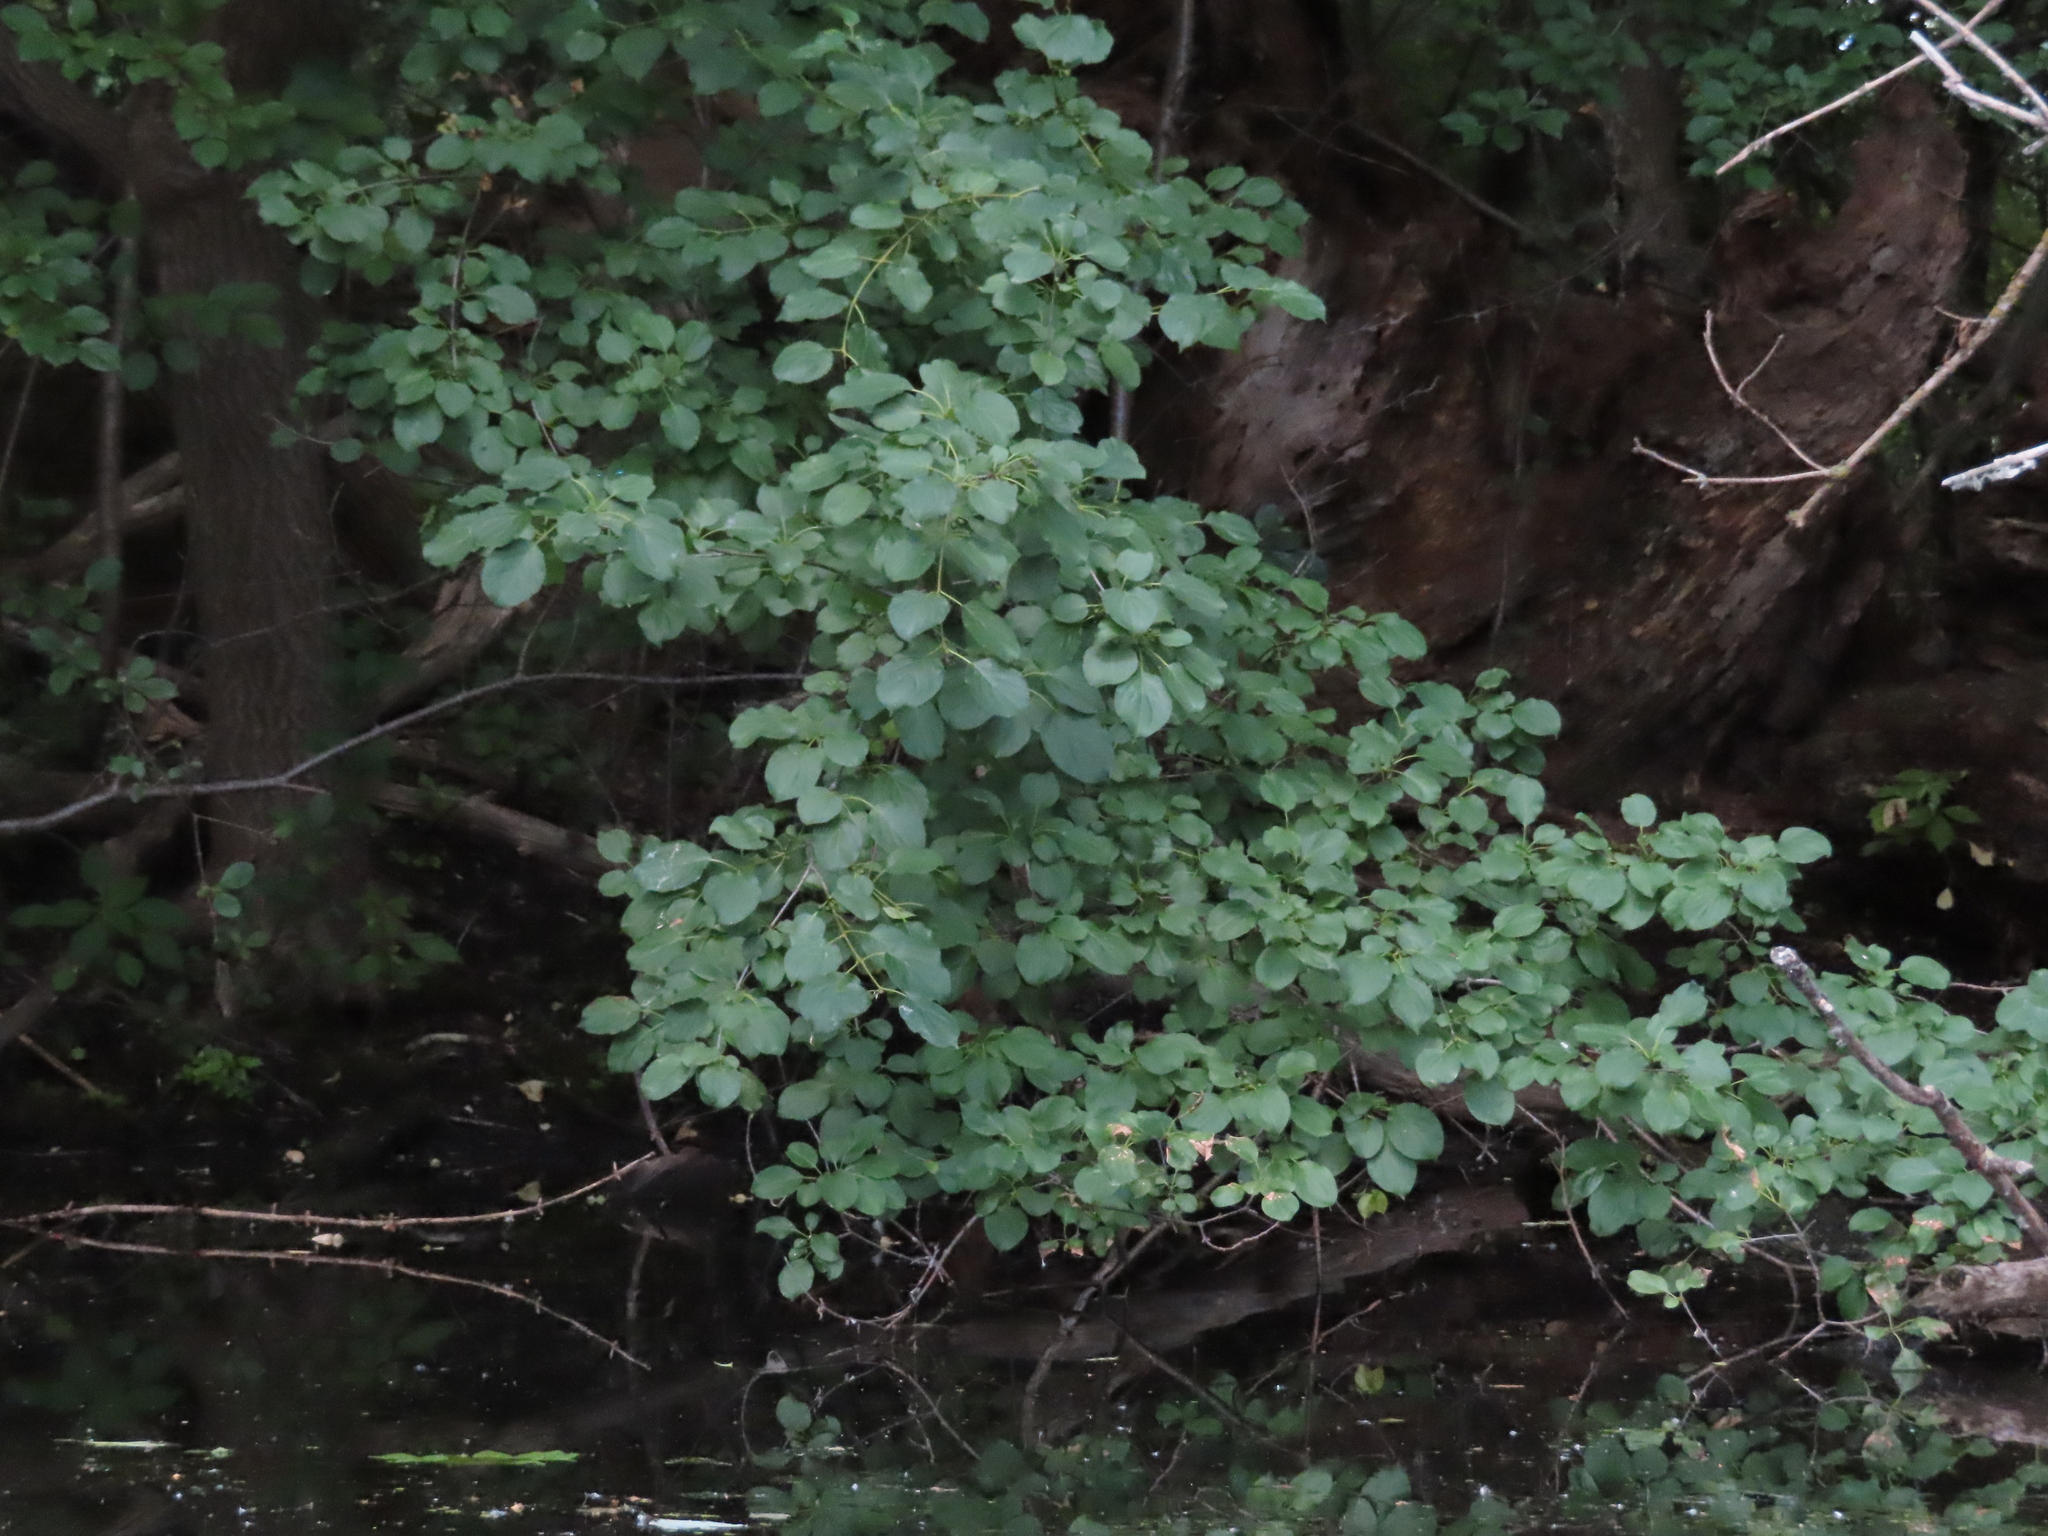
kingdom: Plantae
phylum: Tracheophyta
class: Magnoliopsida
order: Rosales
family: Rhamnaceae
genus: Rhamnus
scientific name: Rhamnus cathartica
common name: Common buckthorn
